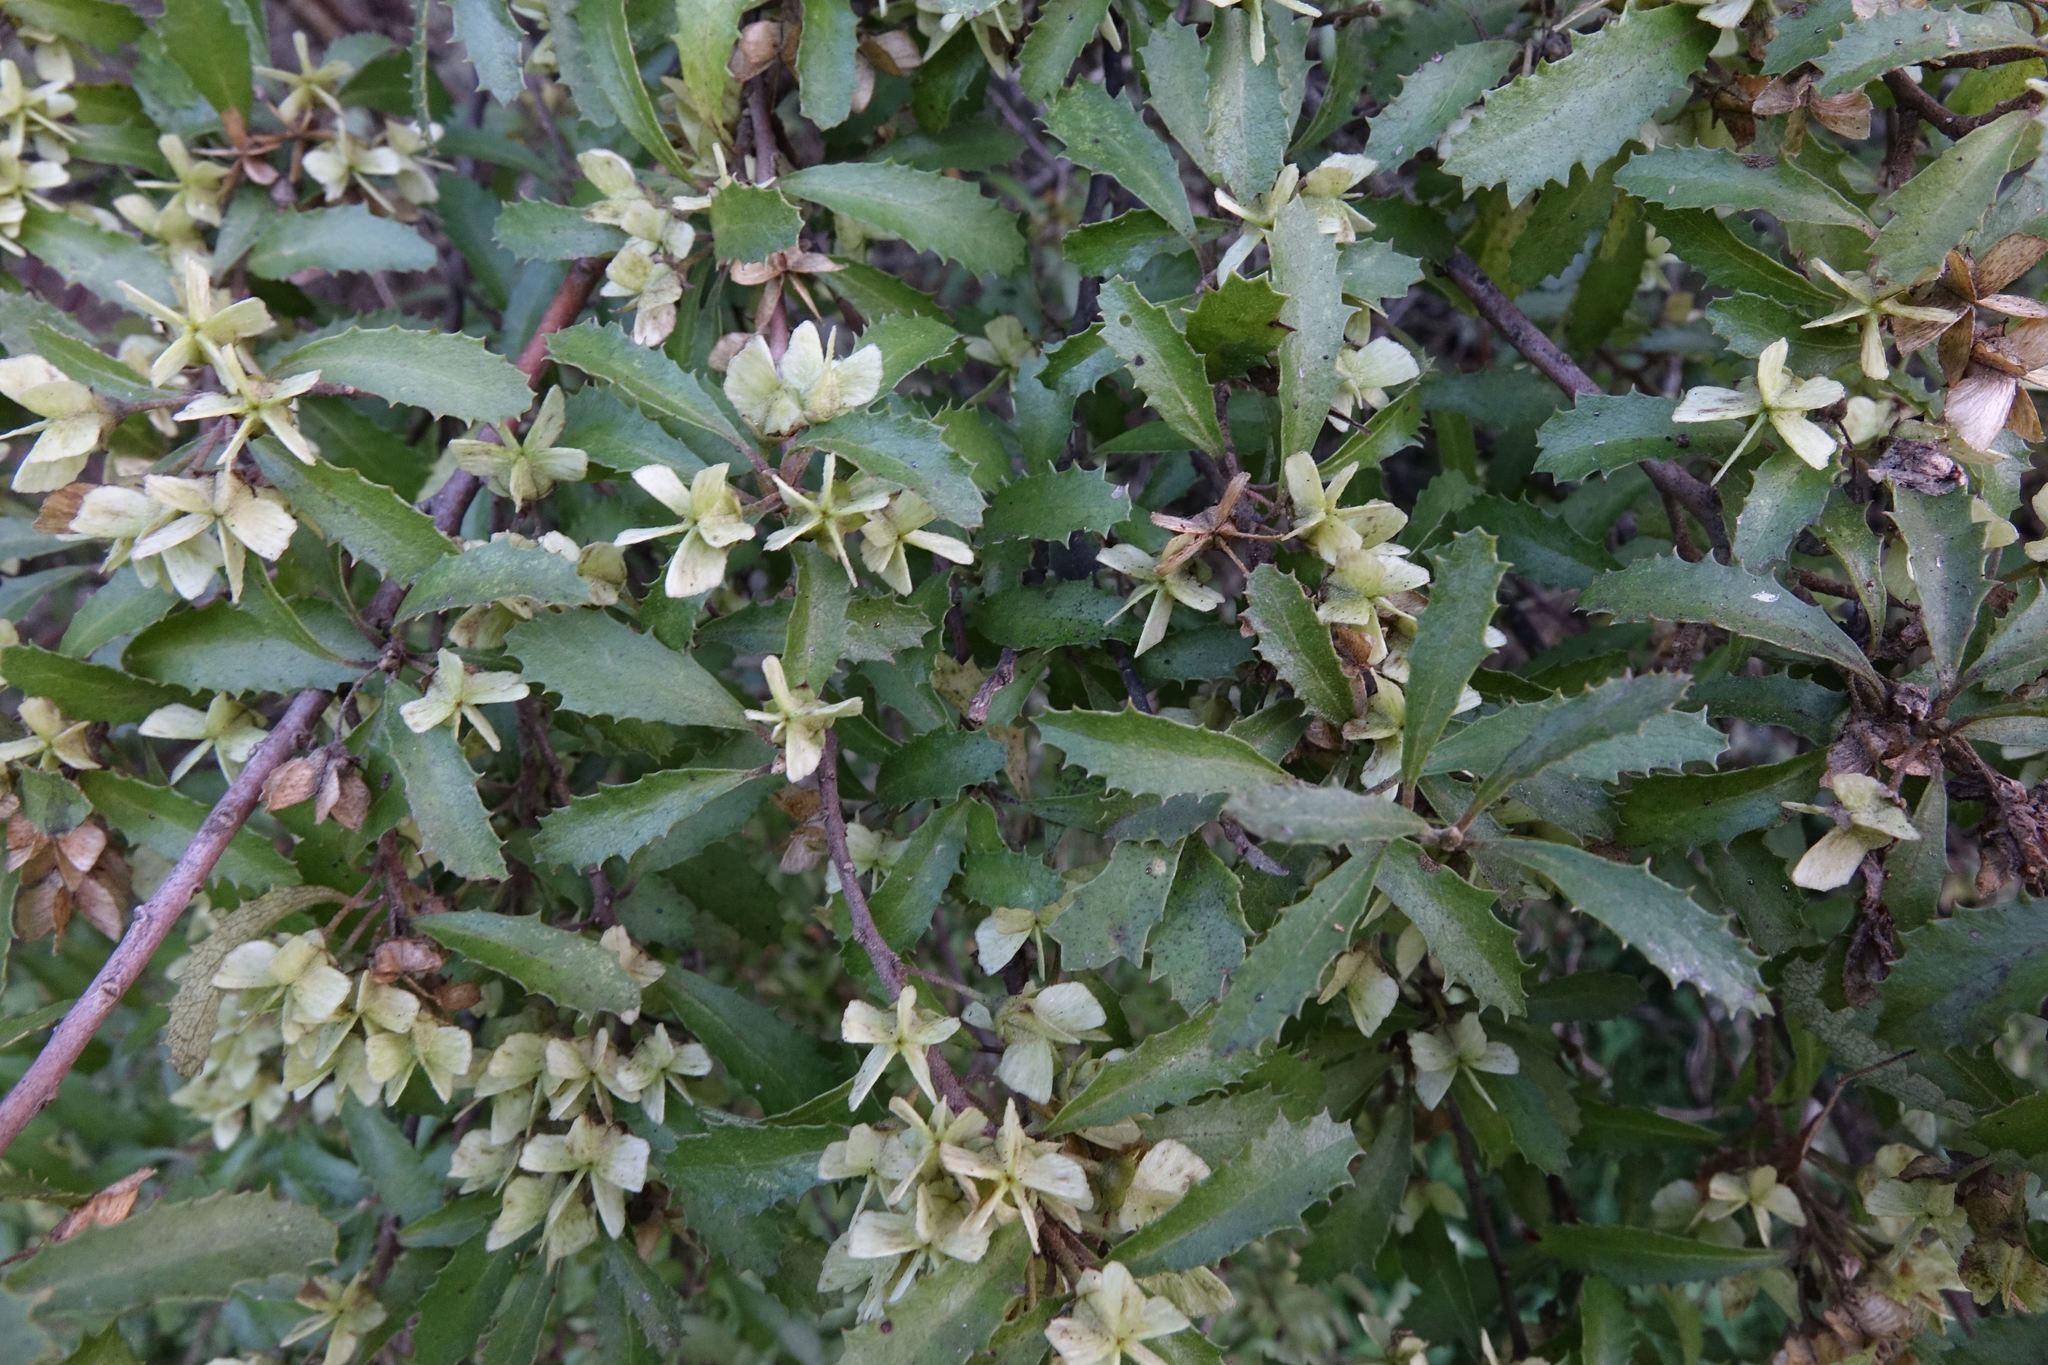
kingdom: Plantae
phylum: Tracheophyta
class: Magnoliopsida
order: Malvales
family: Malvaceae
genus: Hoheria
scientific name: Hoheria angustifolia
